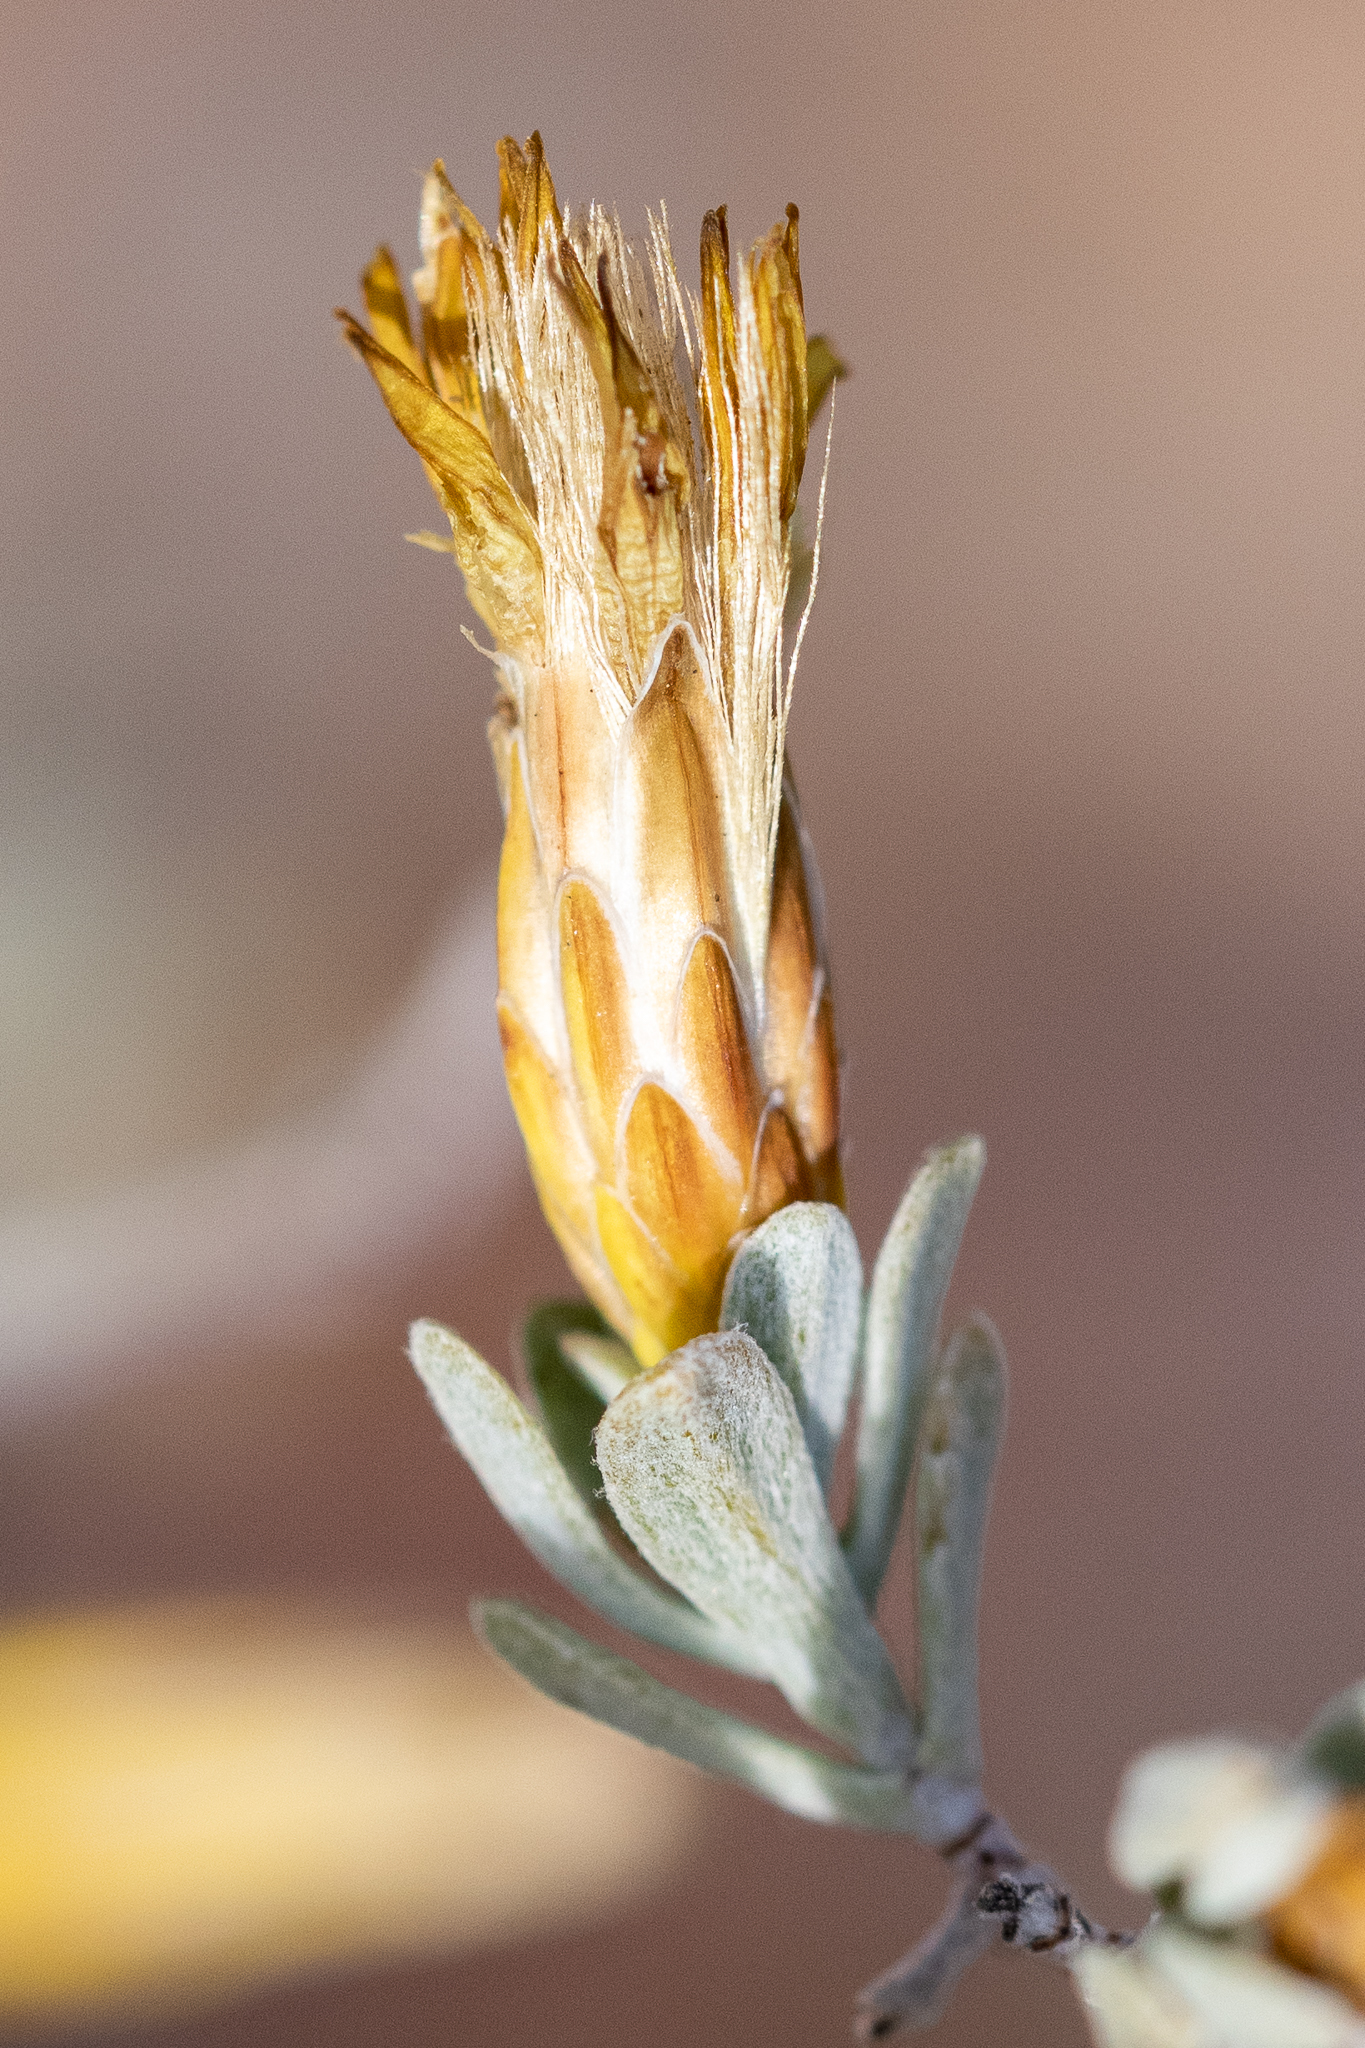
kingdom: Plantae
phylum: Tracheophyta
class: Magnoliopsida
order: Asterales
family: Asteraceae
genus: Pteronia
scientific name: Pteronia incana
